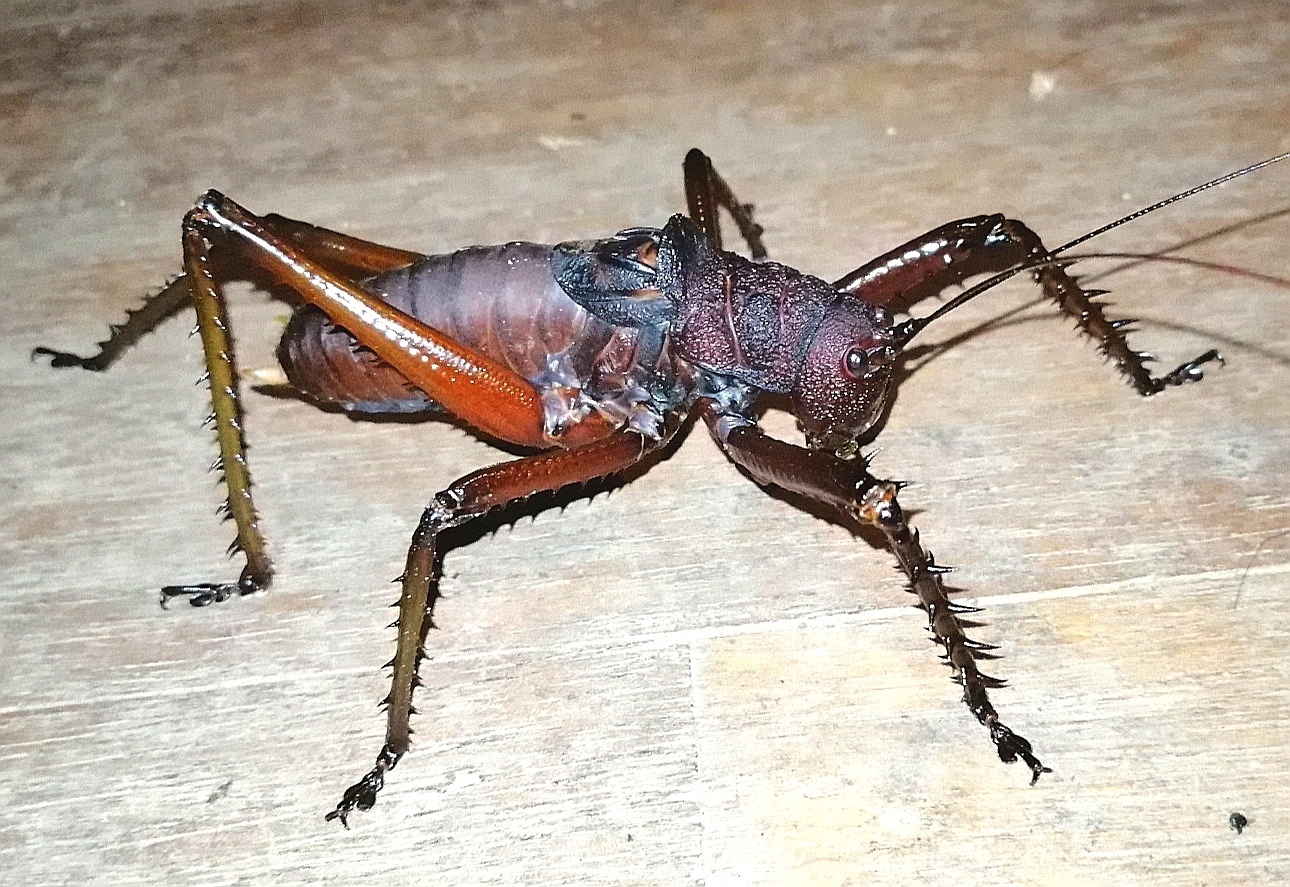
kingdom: Animalia
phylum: Arthropoda
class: Insecta
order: Orthoptera
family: Tettigoniidae
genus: Panoploscelis
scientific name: Panoploscelis specularis
